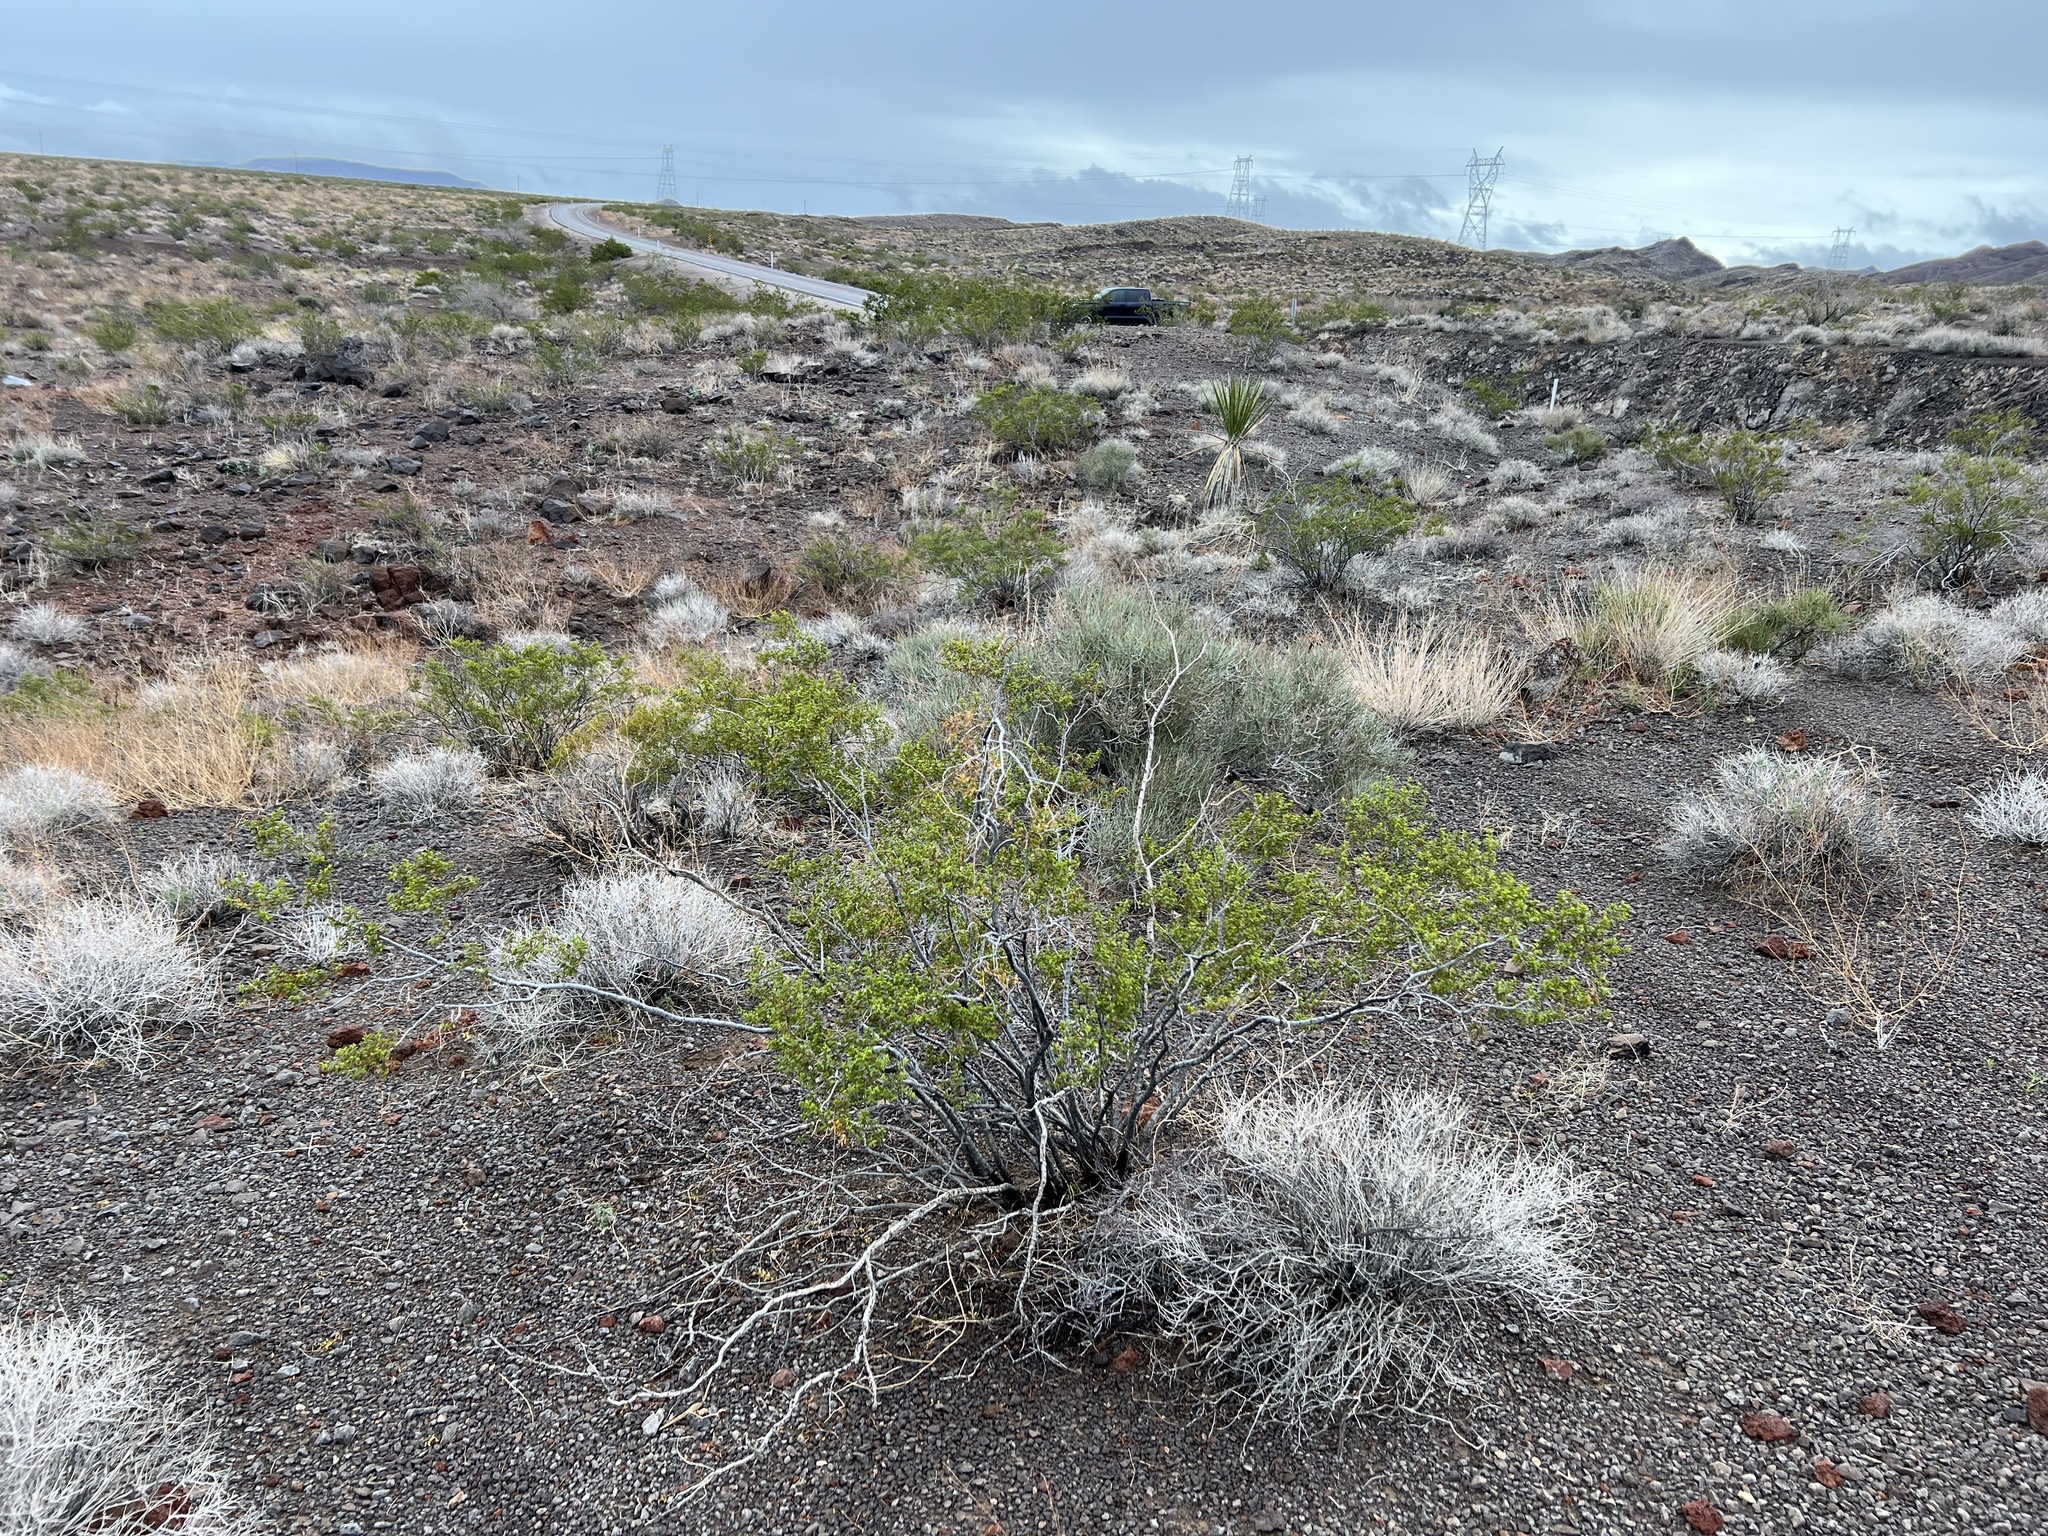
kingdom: Plantae
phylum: Tracheophyta
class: Magnoliopsida
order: Zygophyllales
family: Zygophyllaceae
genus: Larrea
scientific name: Larrea tridentata
